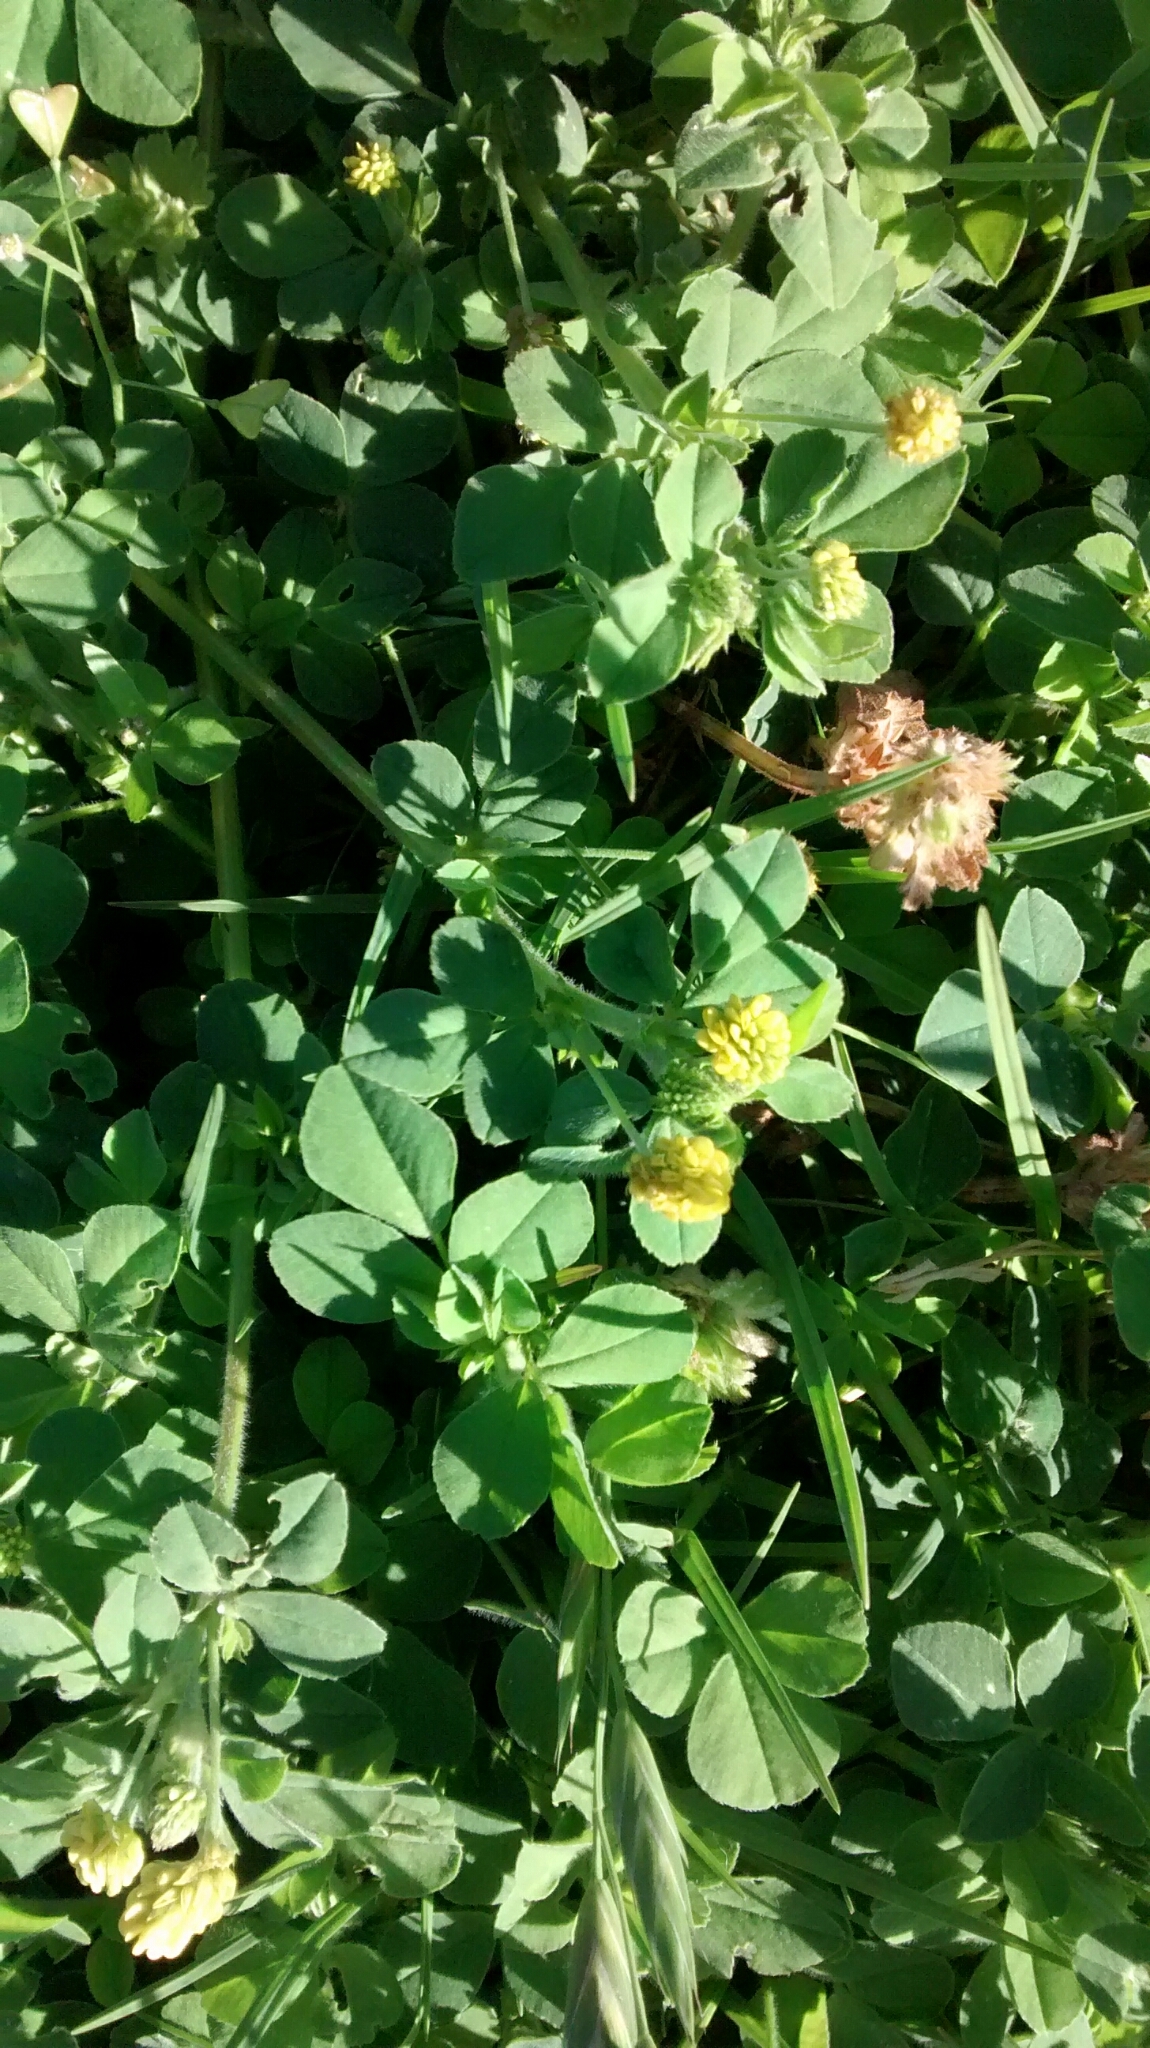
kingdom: Plantae
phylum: Tracheophyta
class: Magnoliopsida
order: Fabales
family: Fabaceae
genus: Medicago
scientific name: Medicago lupulina
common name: Black medick
